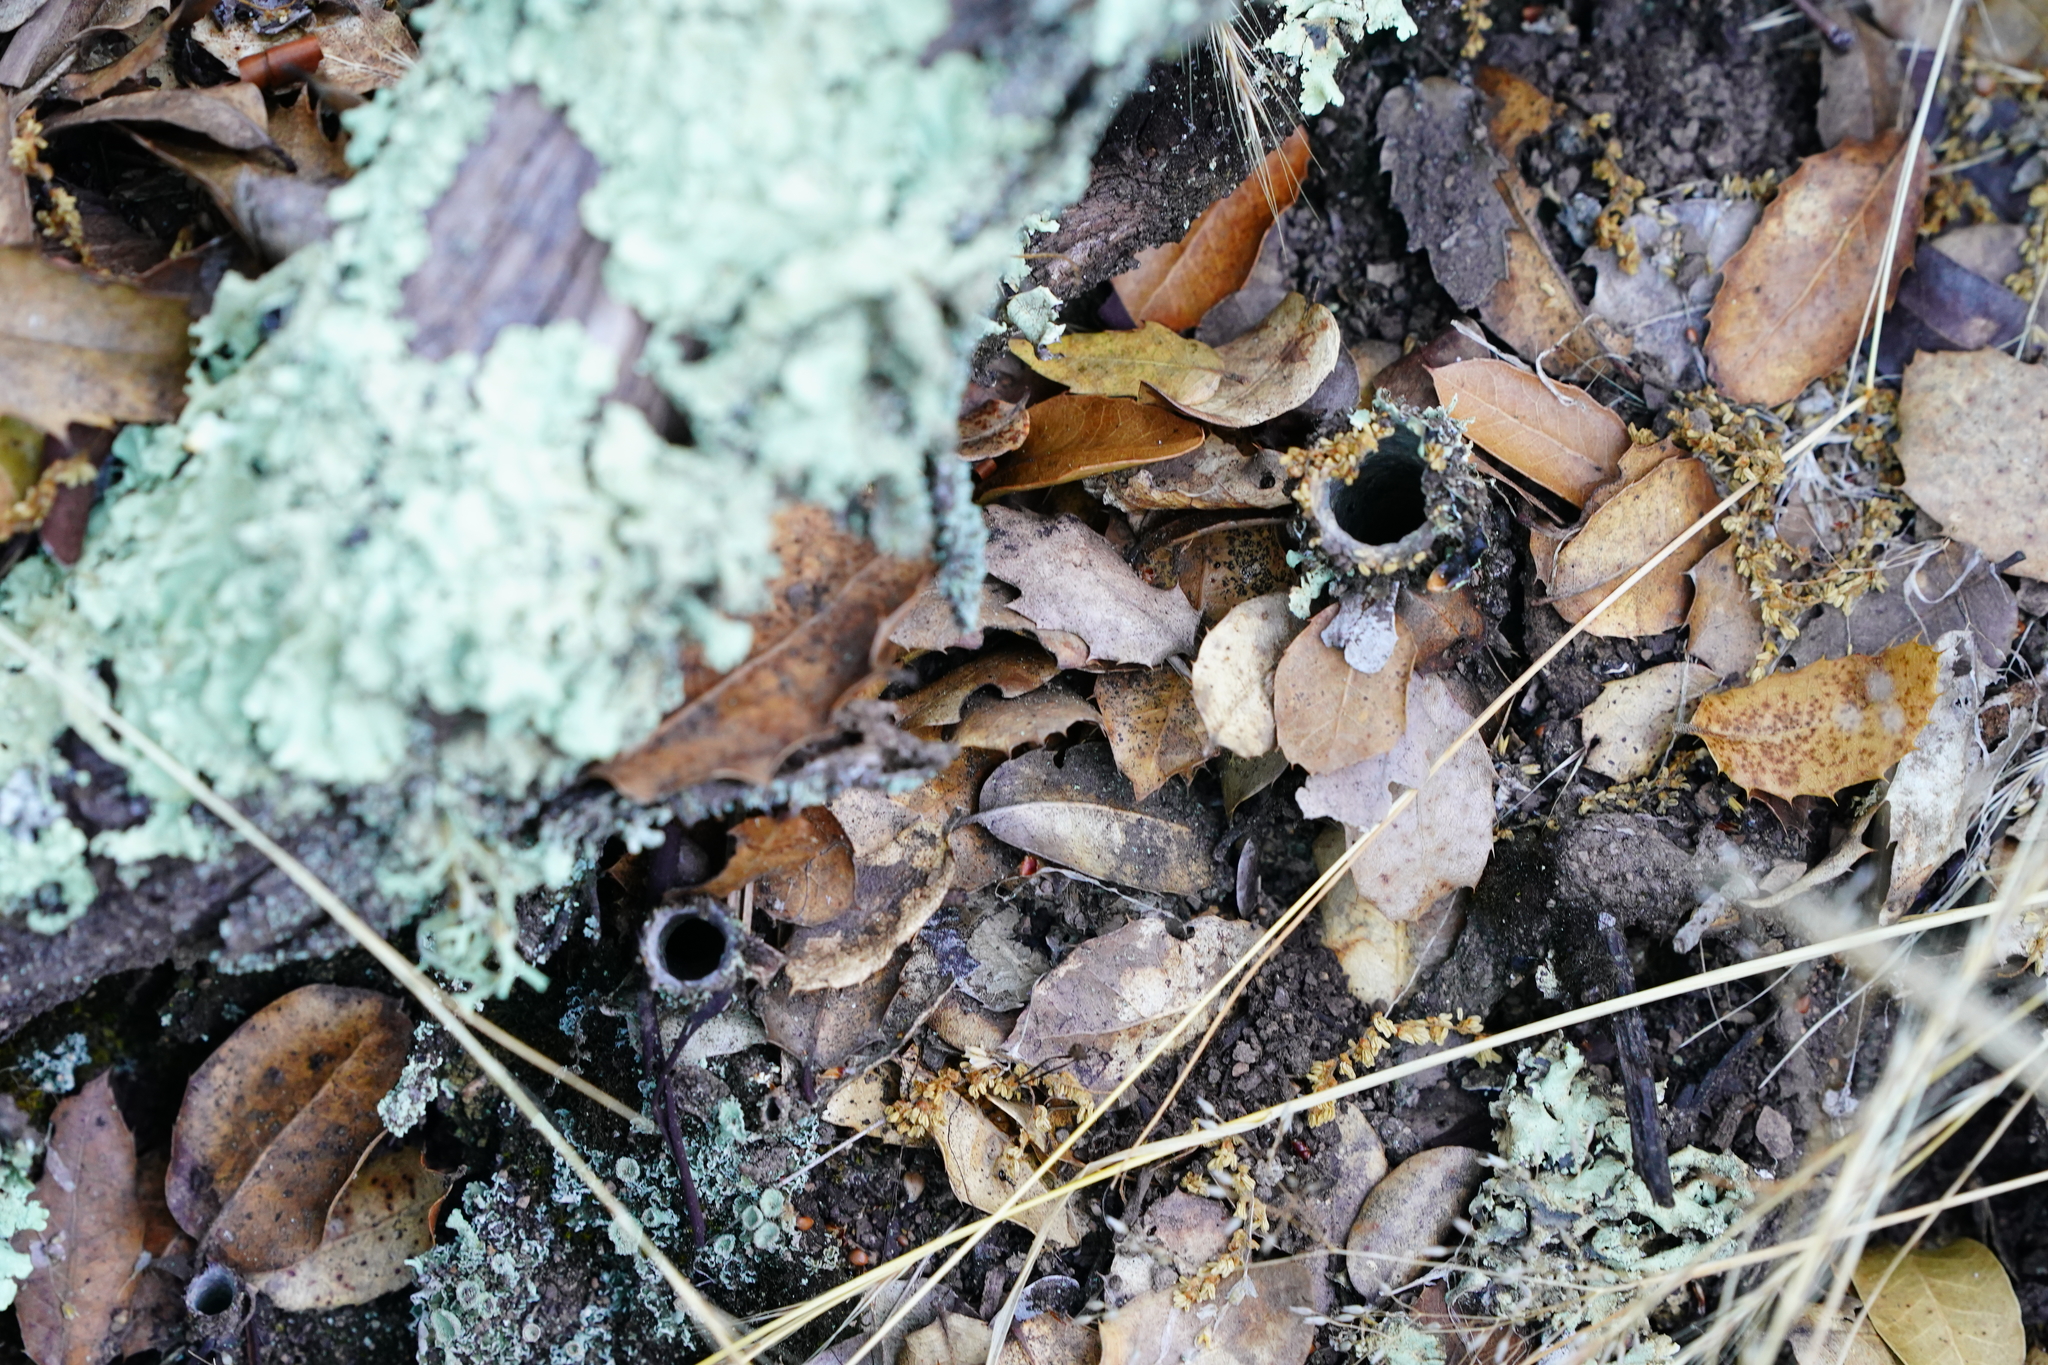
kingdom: Animalia
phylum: Arthropoda
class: Arachnida
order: Araneae
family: Antrodiaetidae
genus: Atypoides
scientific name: Atypoides riversi
